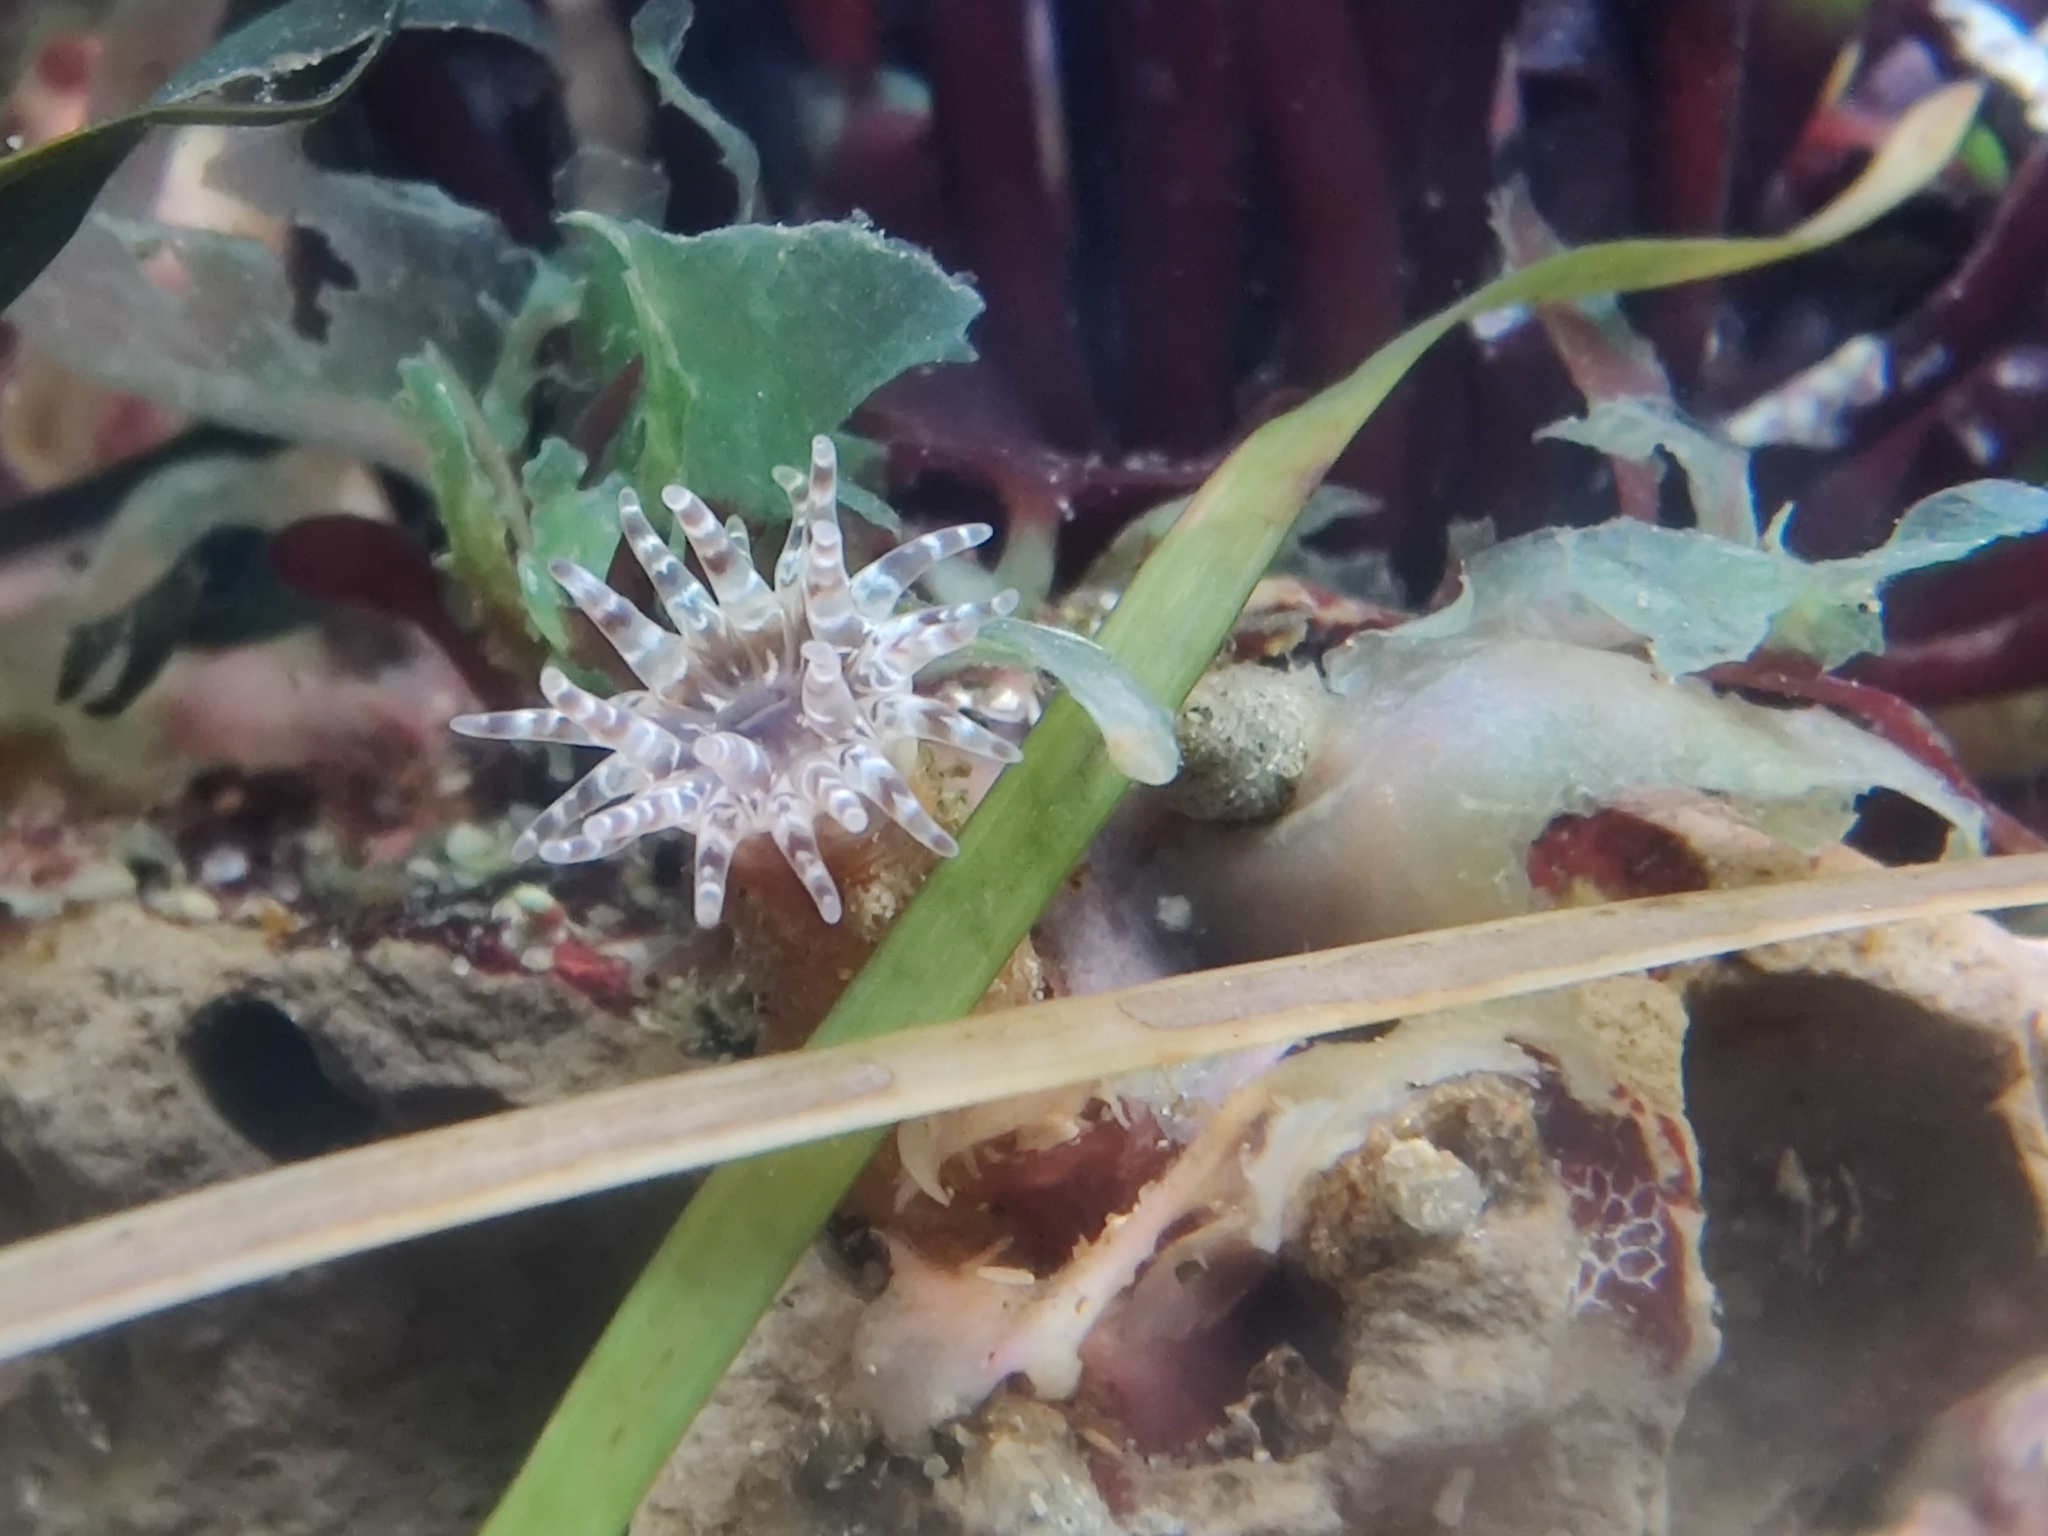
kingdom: Animalia
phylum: Cnidaria
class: Anthozoa
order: Actiniaria
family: Halcampidae
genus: Cactosoma
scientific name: Cactosoma arenarium
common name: Prickly anemone
